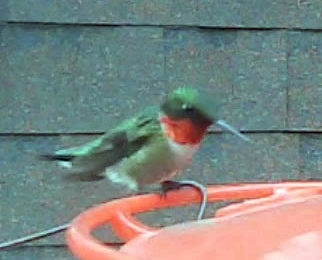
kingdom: Animalia
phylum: Chordata
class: Aves
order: Apodiformes
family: Trochilidae
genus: Archilochus
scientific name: Archilochus colubris
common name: Ruby-throated hummingbird
